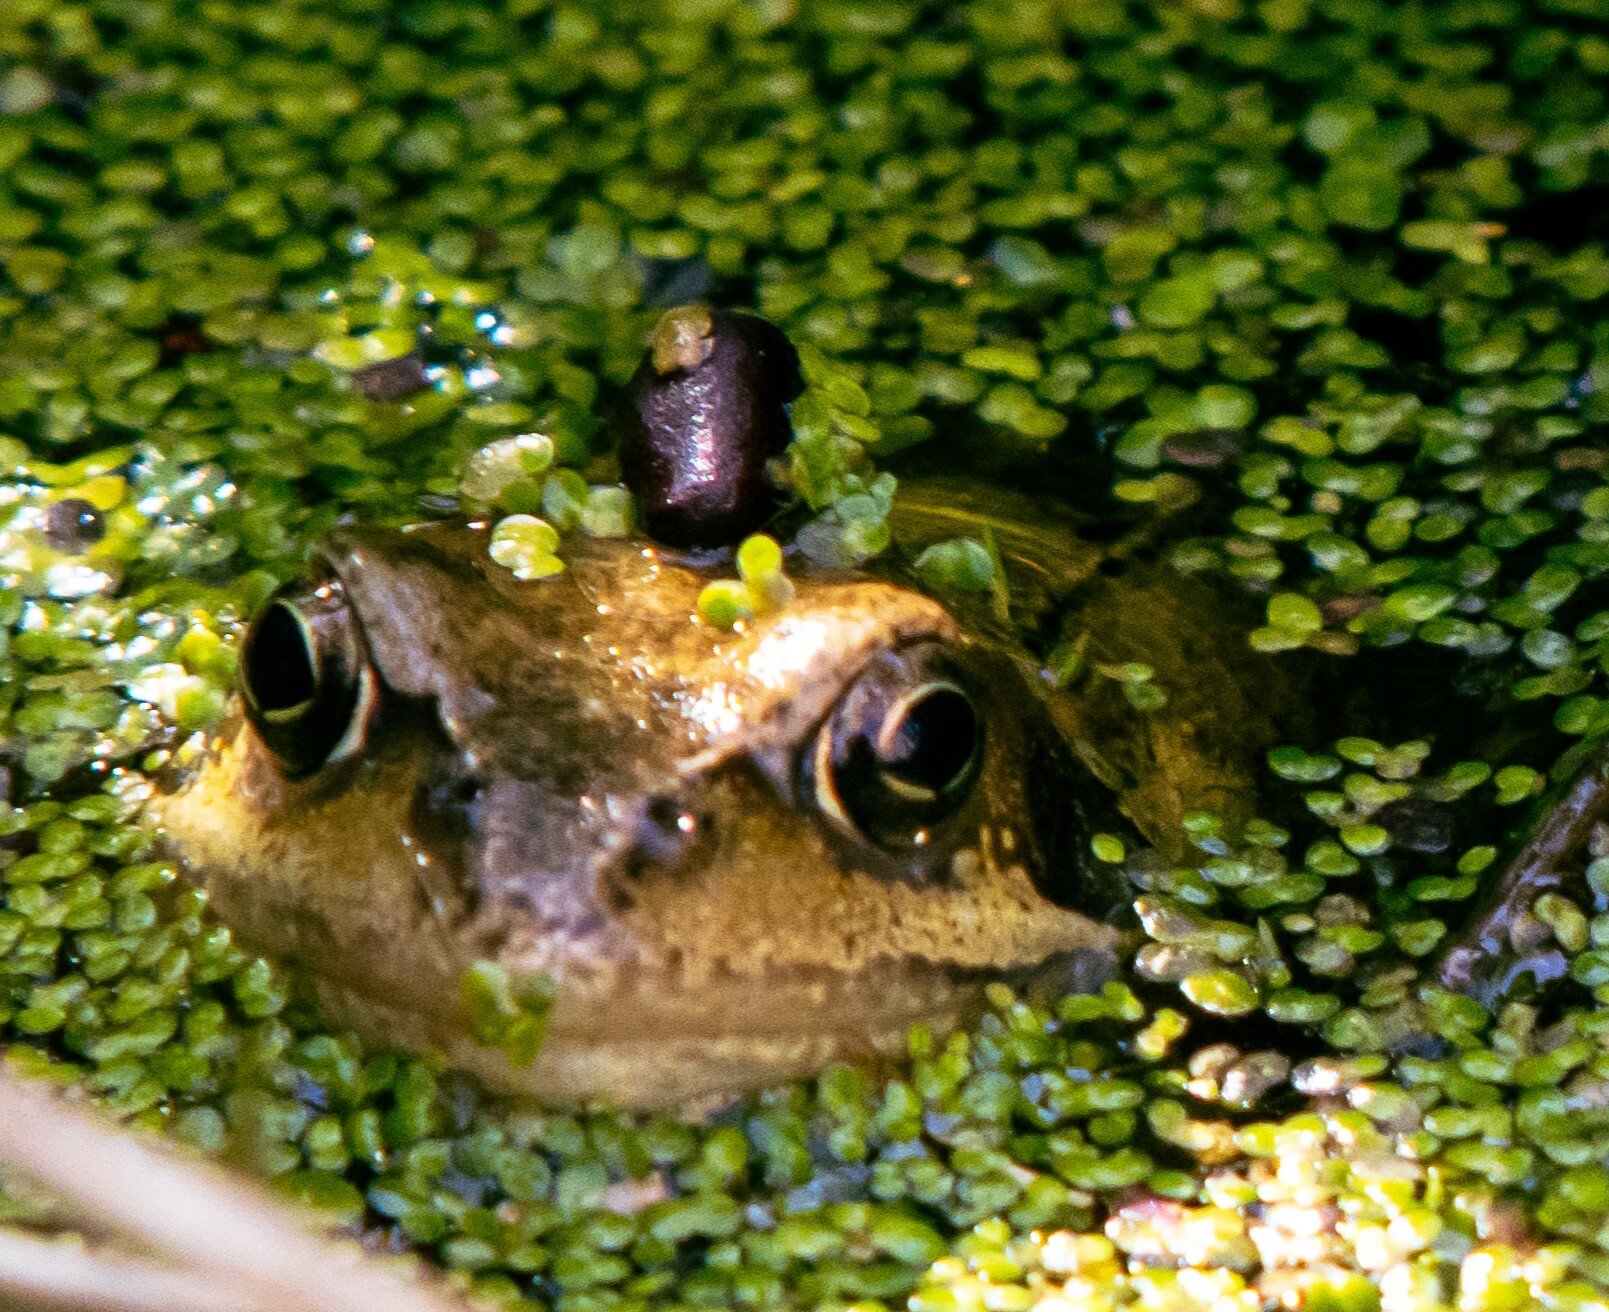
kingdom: Animalia
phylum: Chordata
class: Amphibia
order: Anura
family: Ranidae
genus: Rana
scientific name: Rana temporaria
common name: Common frog
